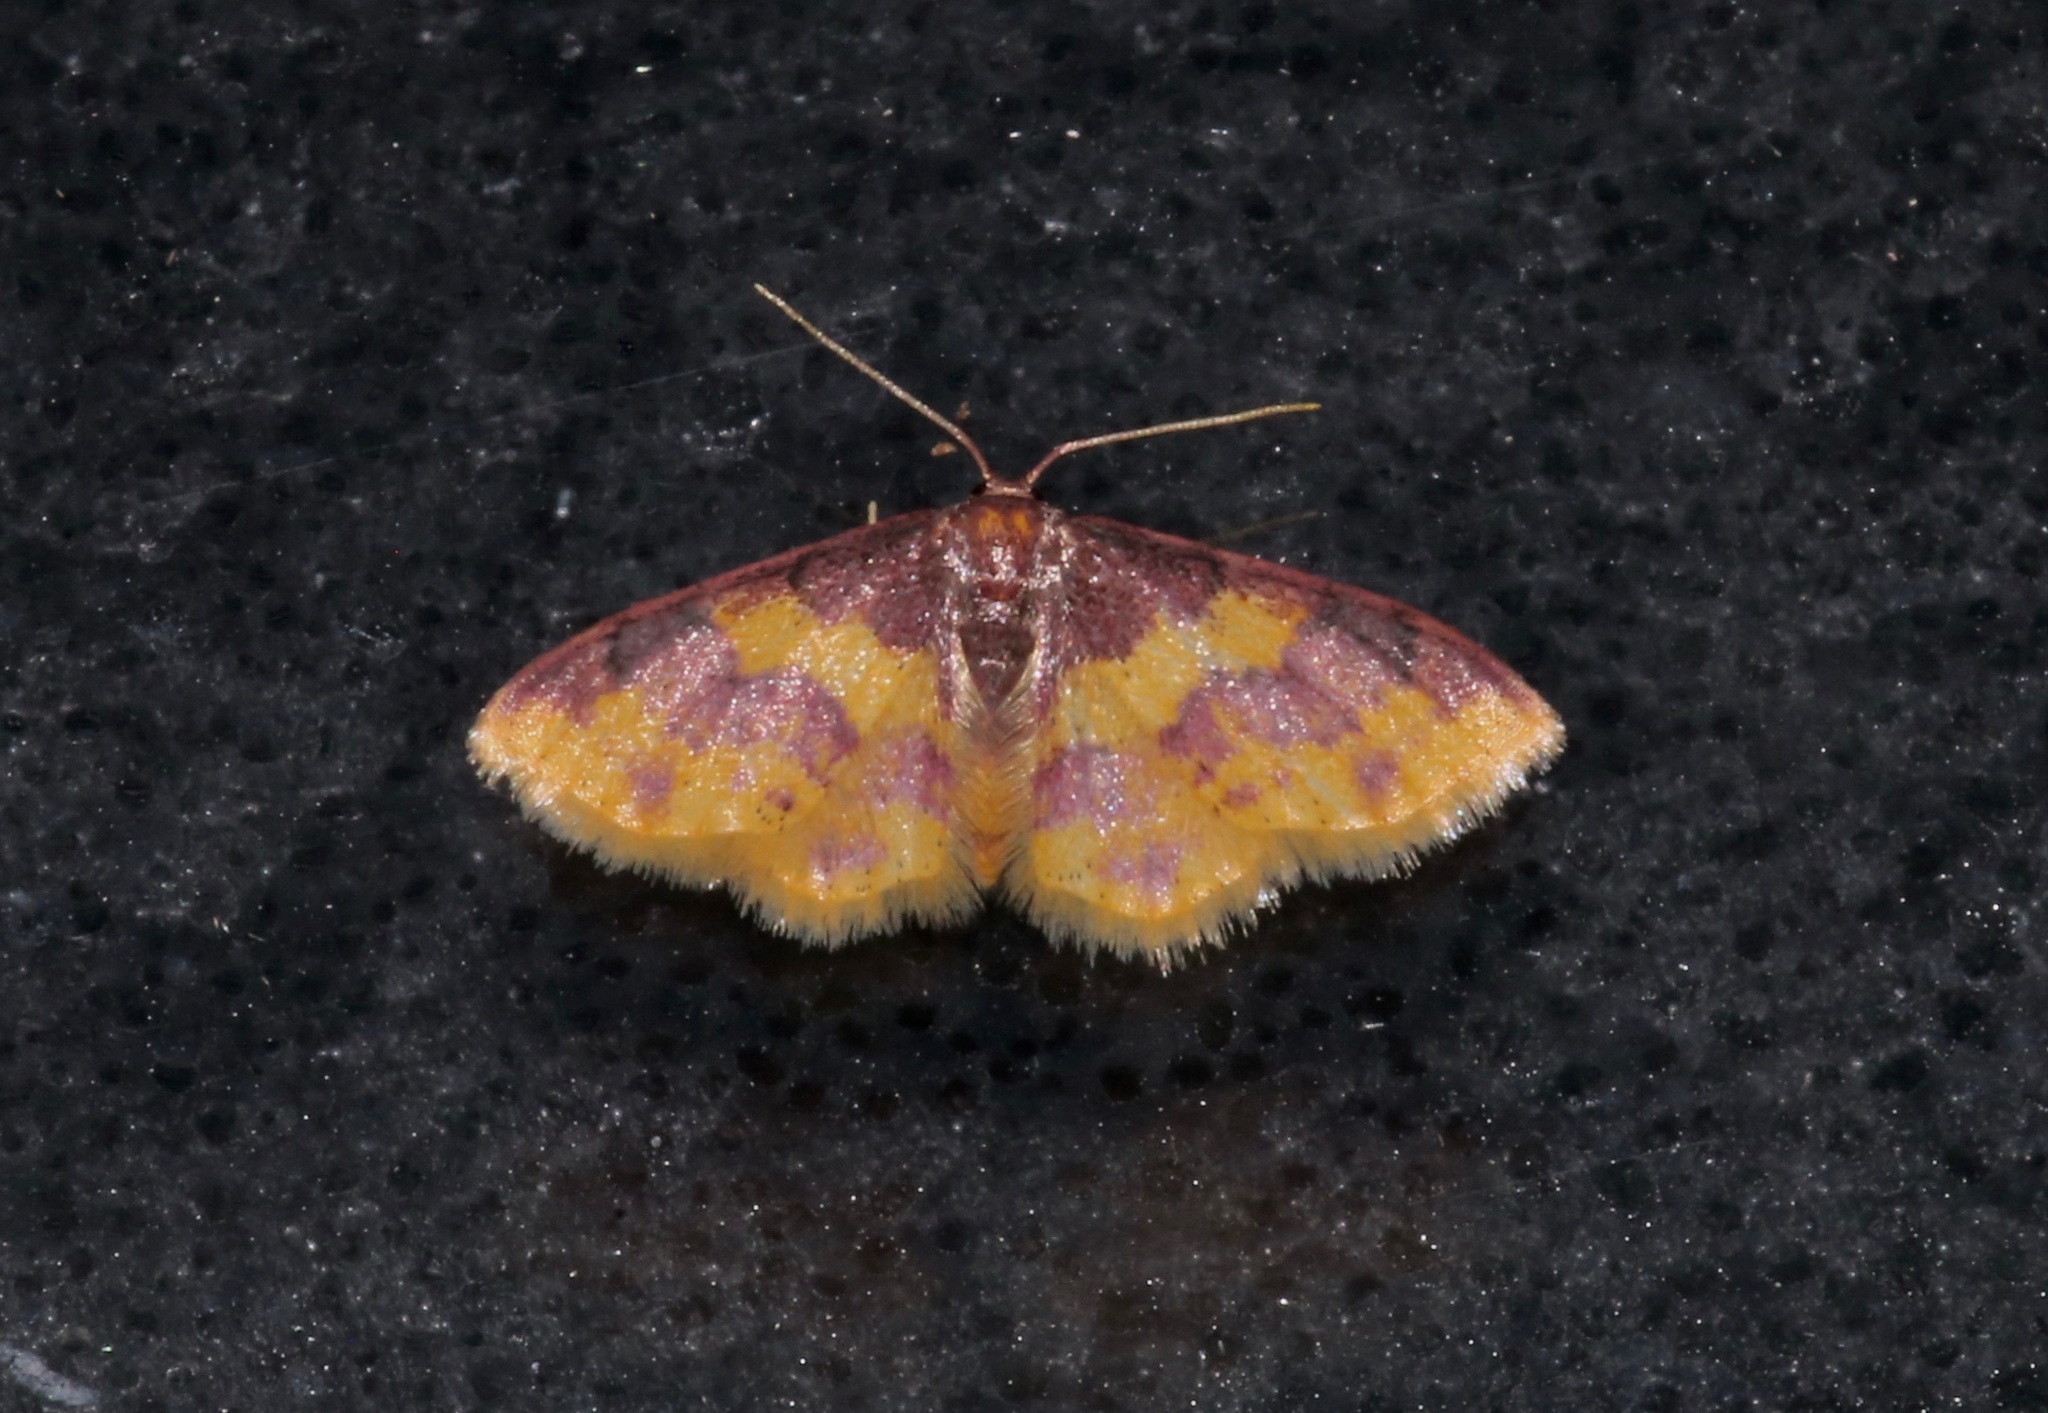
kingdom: Animalia
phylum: Arthropoda
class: Insecta
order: Lepidoptera
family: Geometridae
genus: Lophosis
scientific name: Lophosis labeculata
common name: Stained lophosis moth
